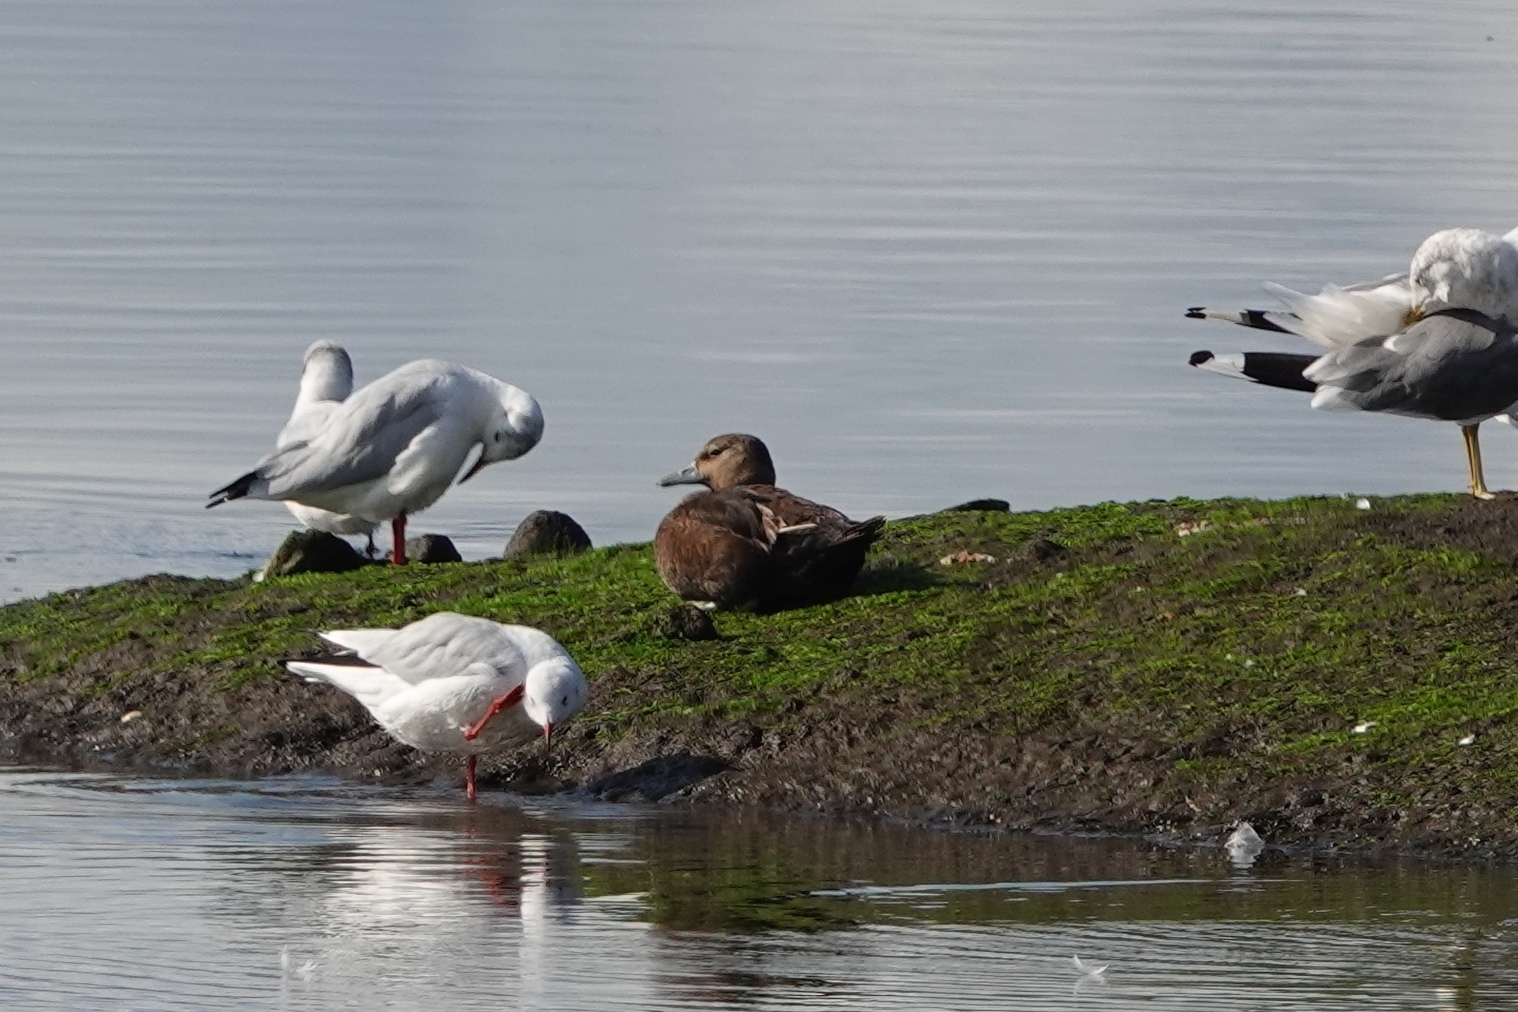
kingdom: Animalia
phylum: Chordata
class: Aves
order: Anseriformes
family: Anatidae
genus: Polysticta
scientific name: Polysticta stelleri
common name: Steller's eider
